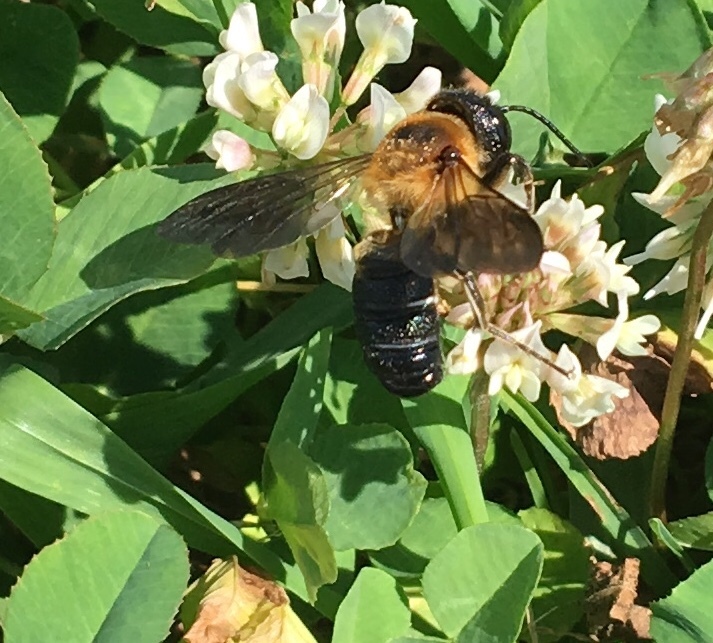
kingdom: Animalia
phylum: Arthropoda
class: Insecta
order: Hymenoptera
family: Megachilidae
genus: Megachile
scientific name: Megachile sculpturalis
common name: Sculptured resin bee
